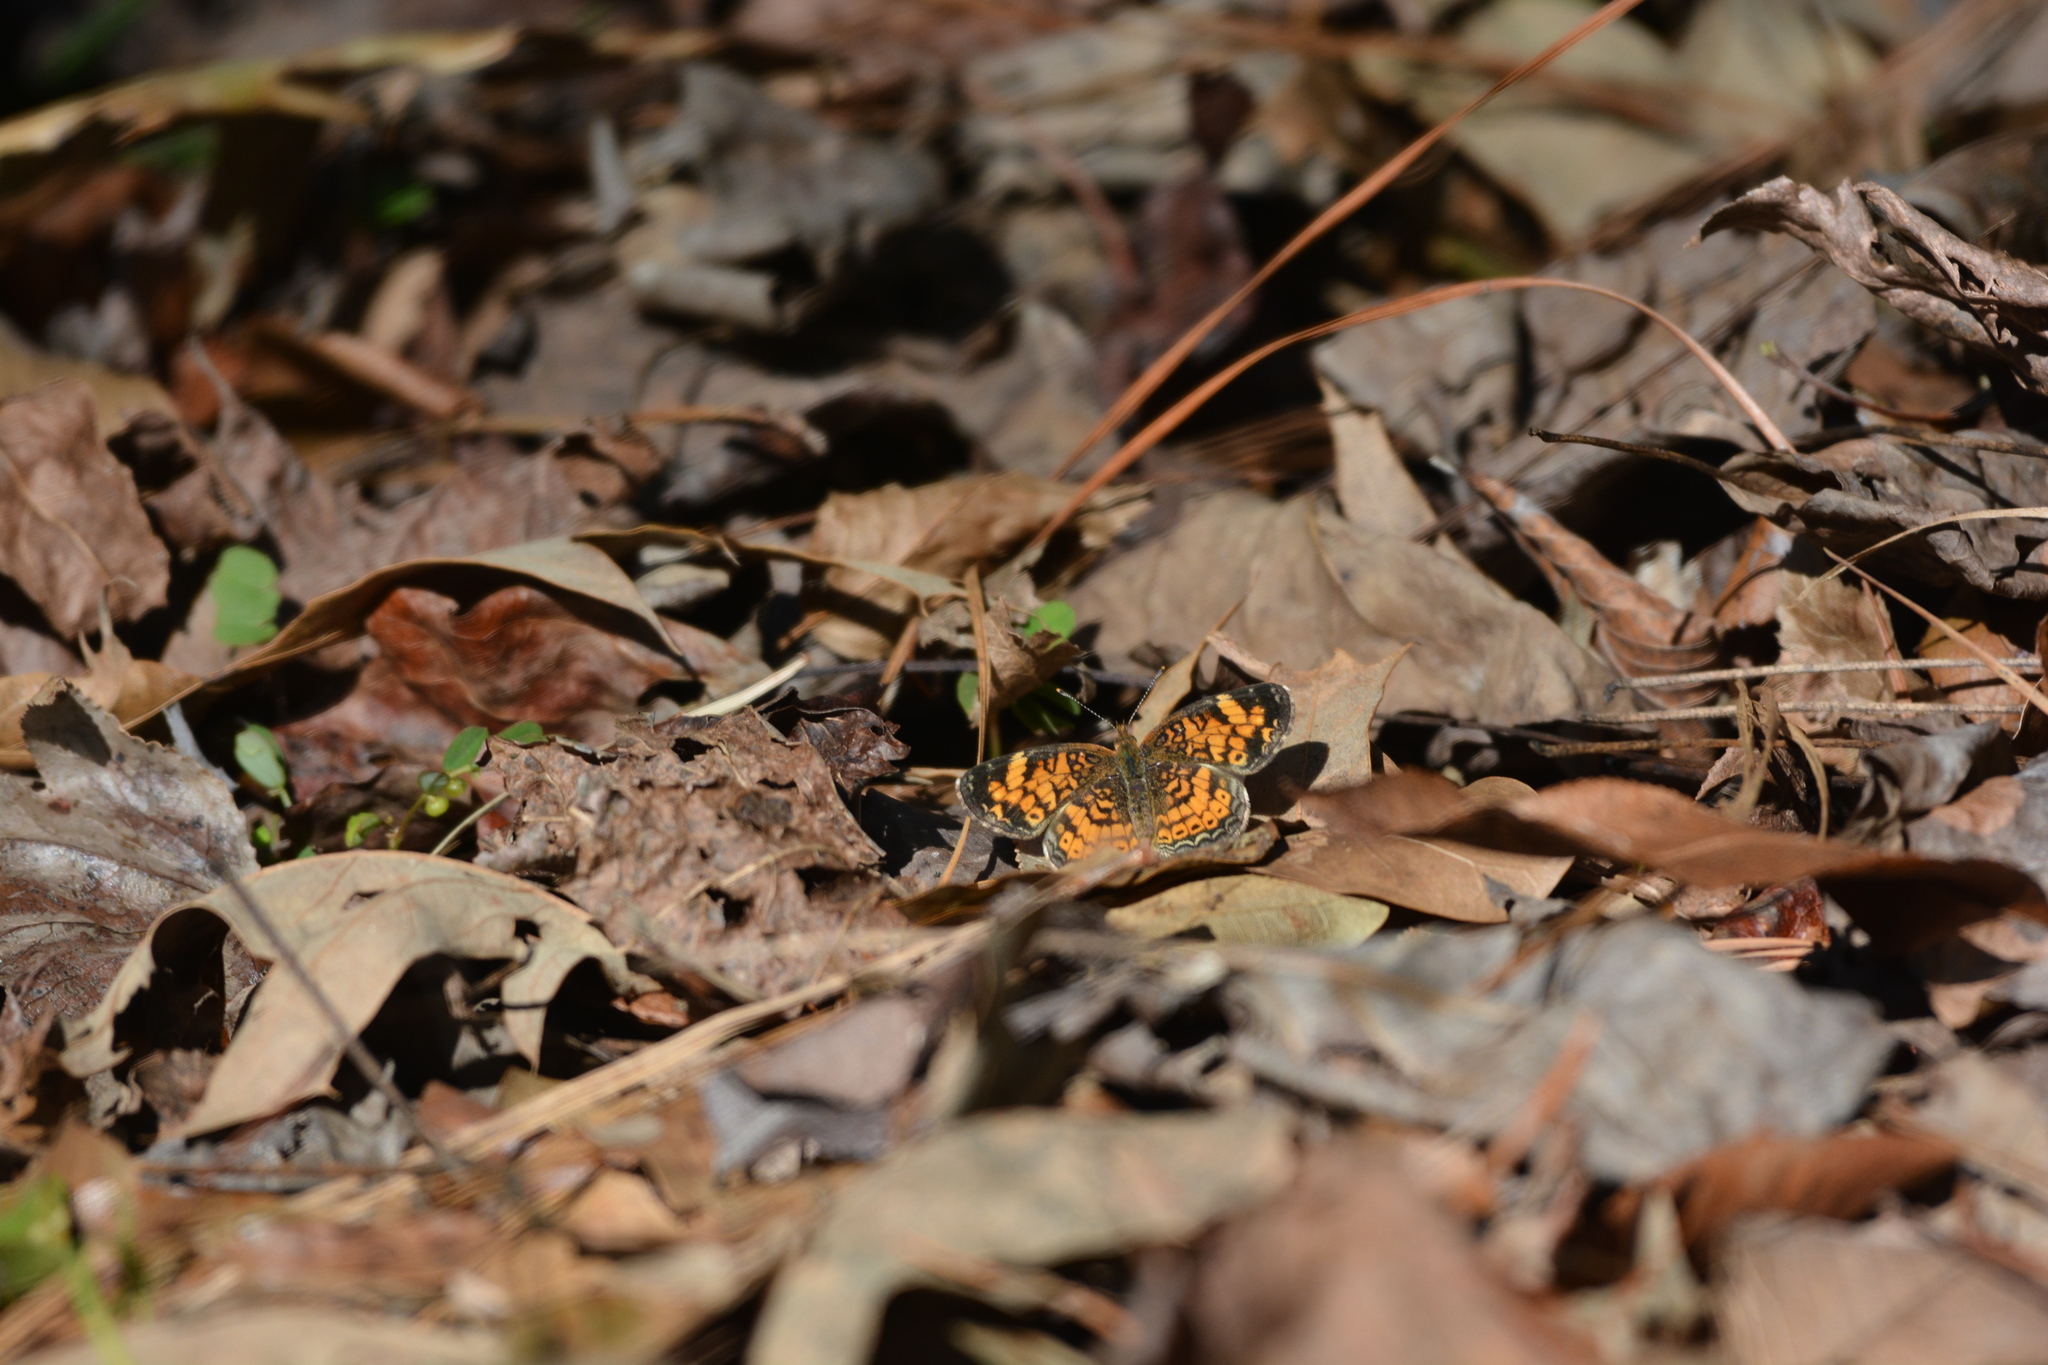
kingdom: Animalia
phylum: Arthropoda
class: Insecta
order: Lepidoptera
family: Nymphalidae
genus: Phyciodes
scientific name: Phyciodes tharos
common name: Pearl crescent
